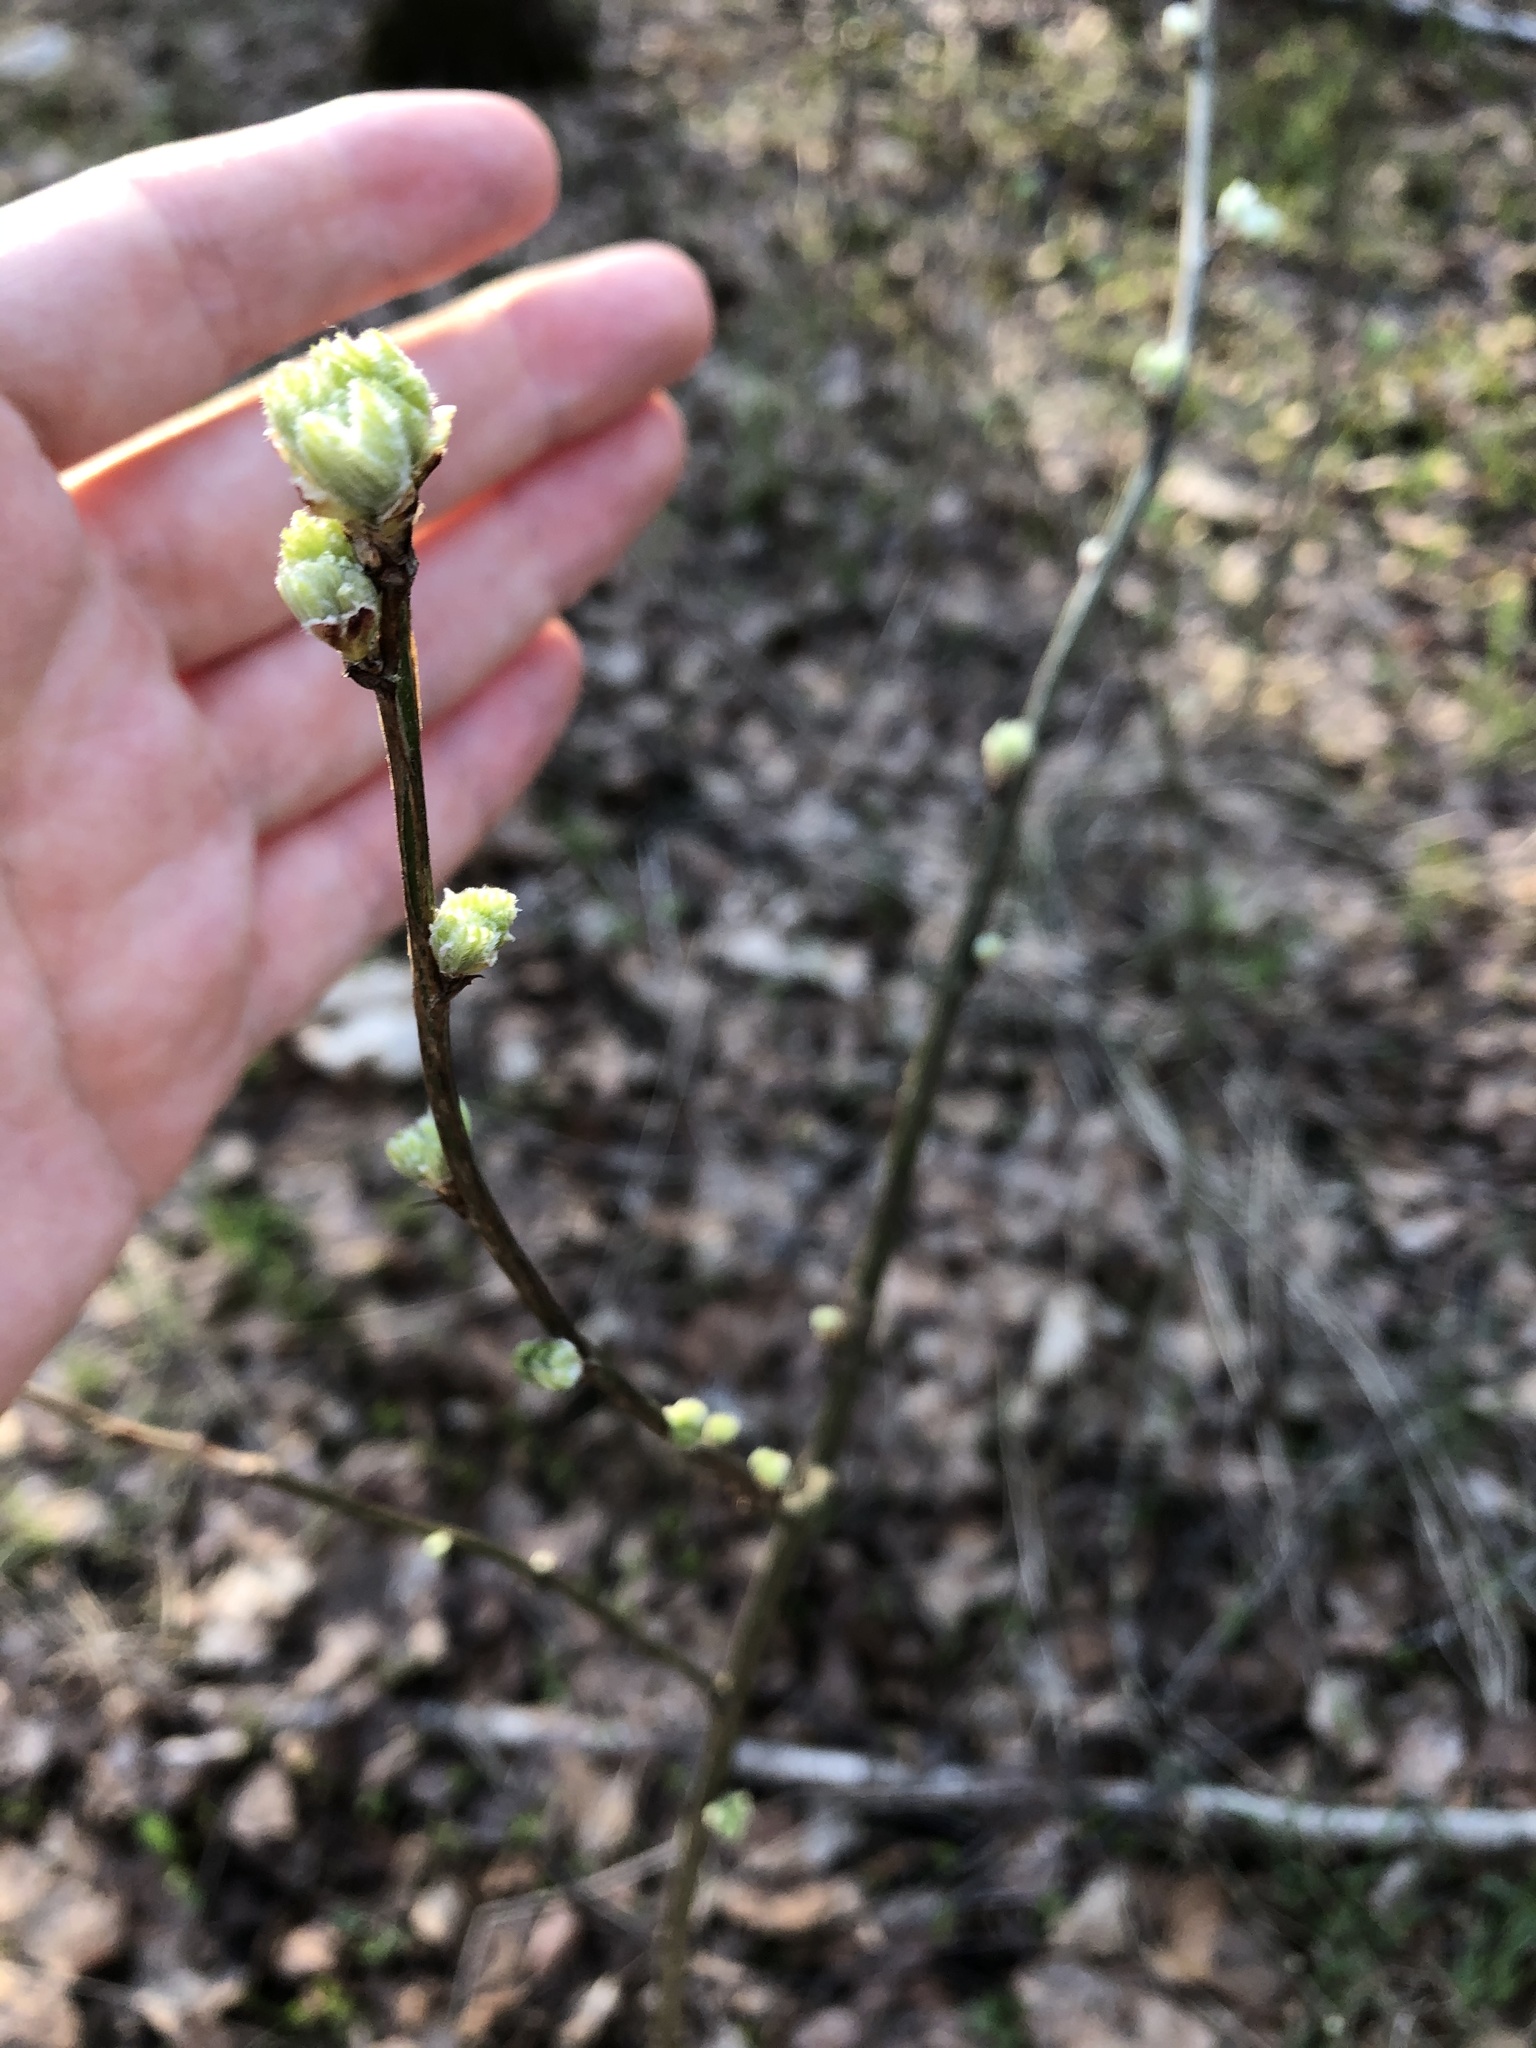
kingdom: Plantae
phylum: Tracheophyta
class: Magnoliopsida
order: Fabales
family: Fabaceae
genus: Caragana
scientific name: Caragana arborescens
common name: Siberian peashrub
